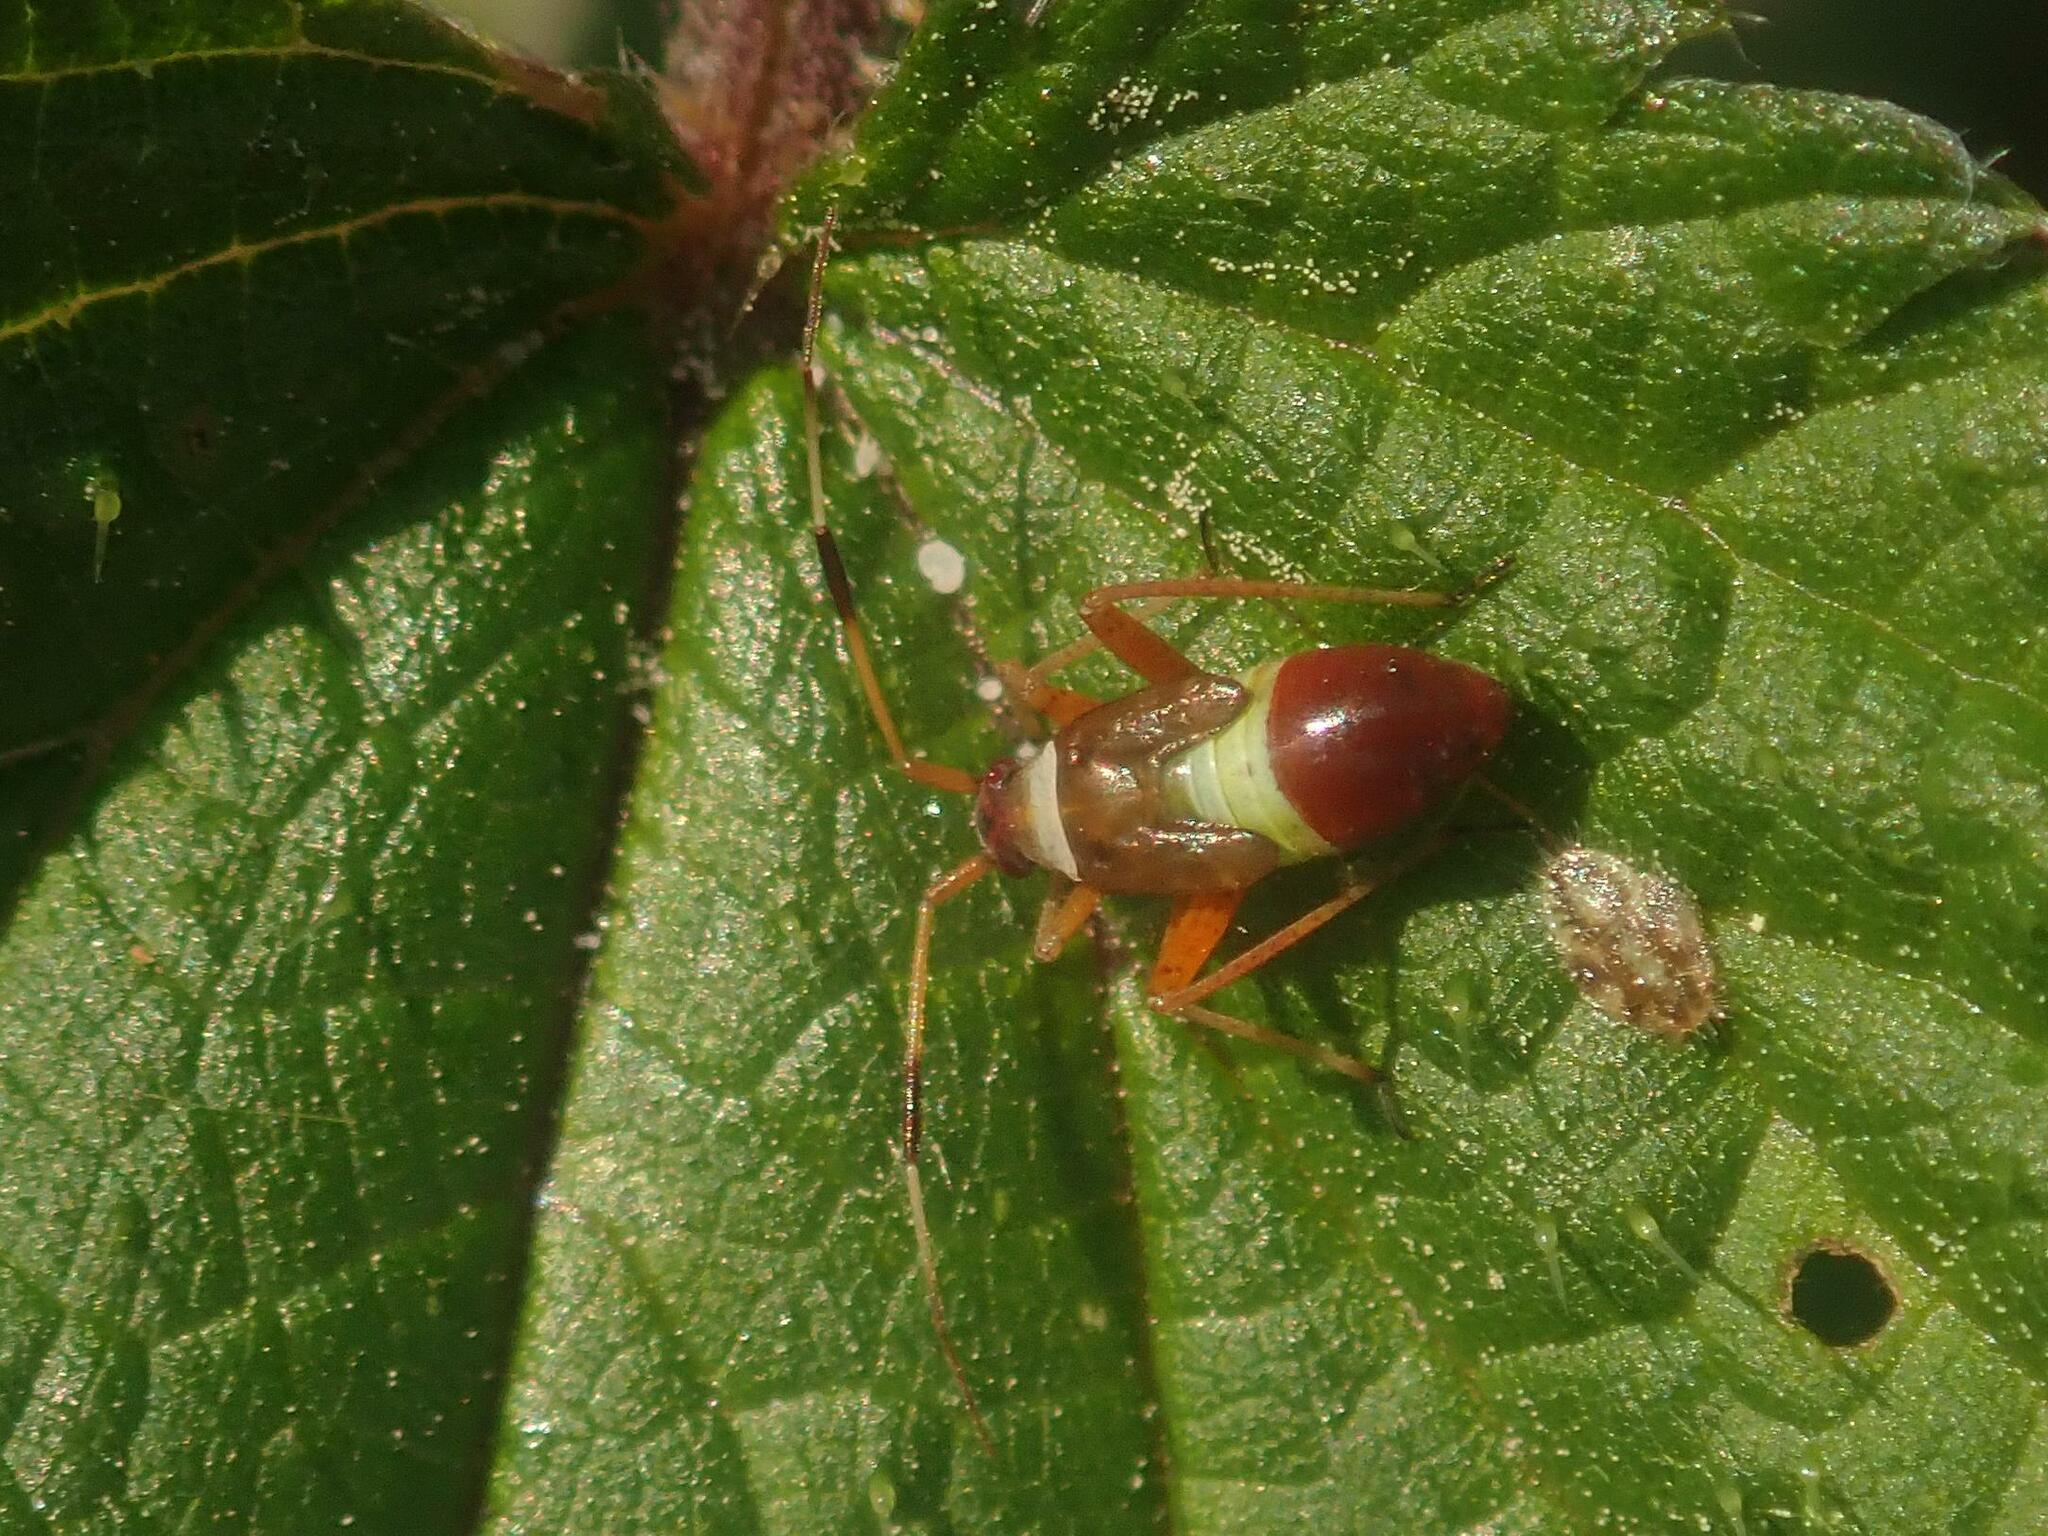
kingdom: Animalia
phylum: Arthropoda
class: Insecta
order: Hemiptera
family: Miridae
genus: Closterotomus
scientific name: Closterotomus biclavatus
